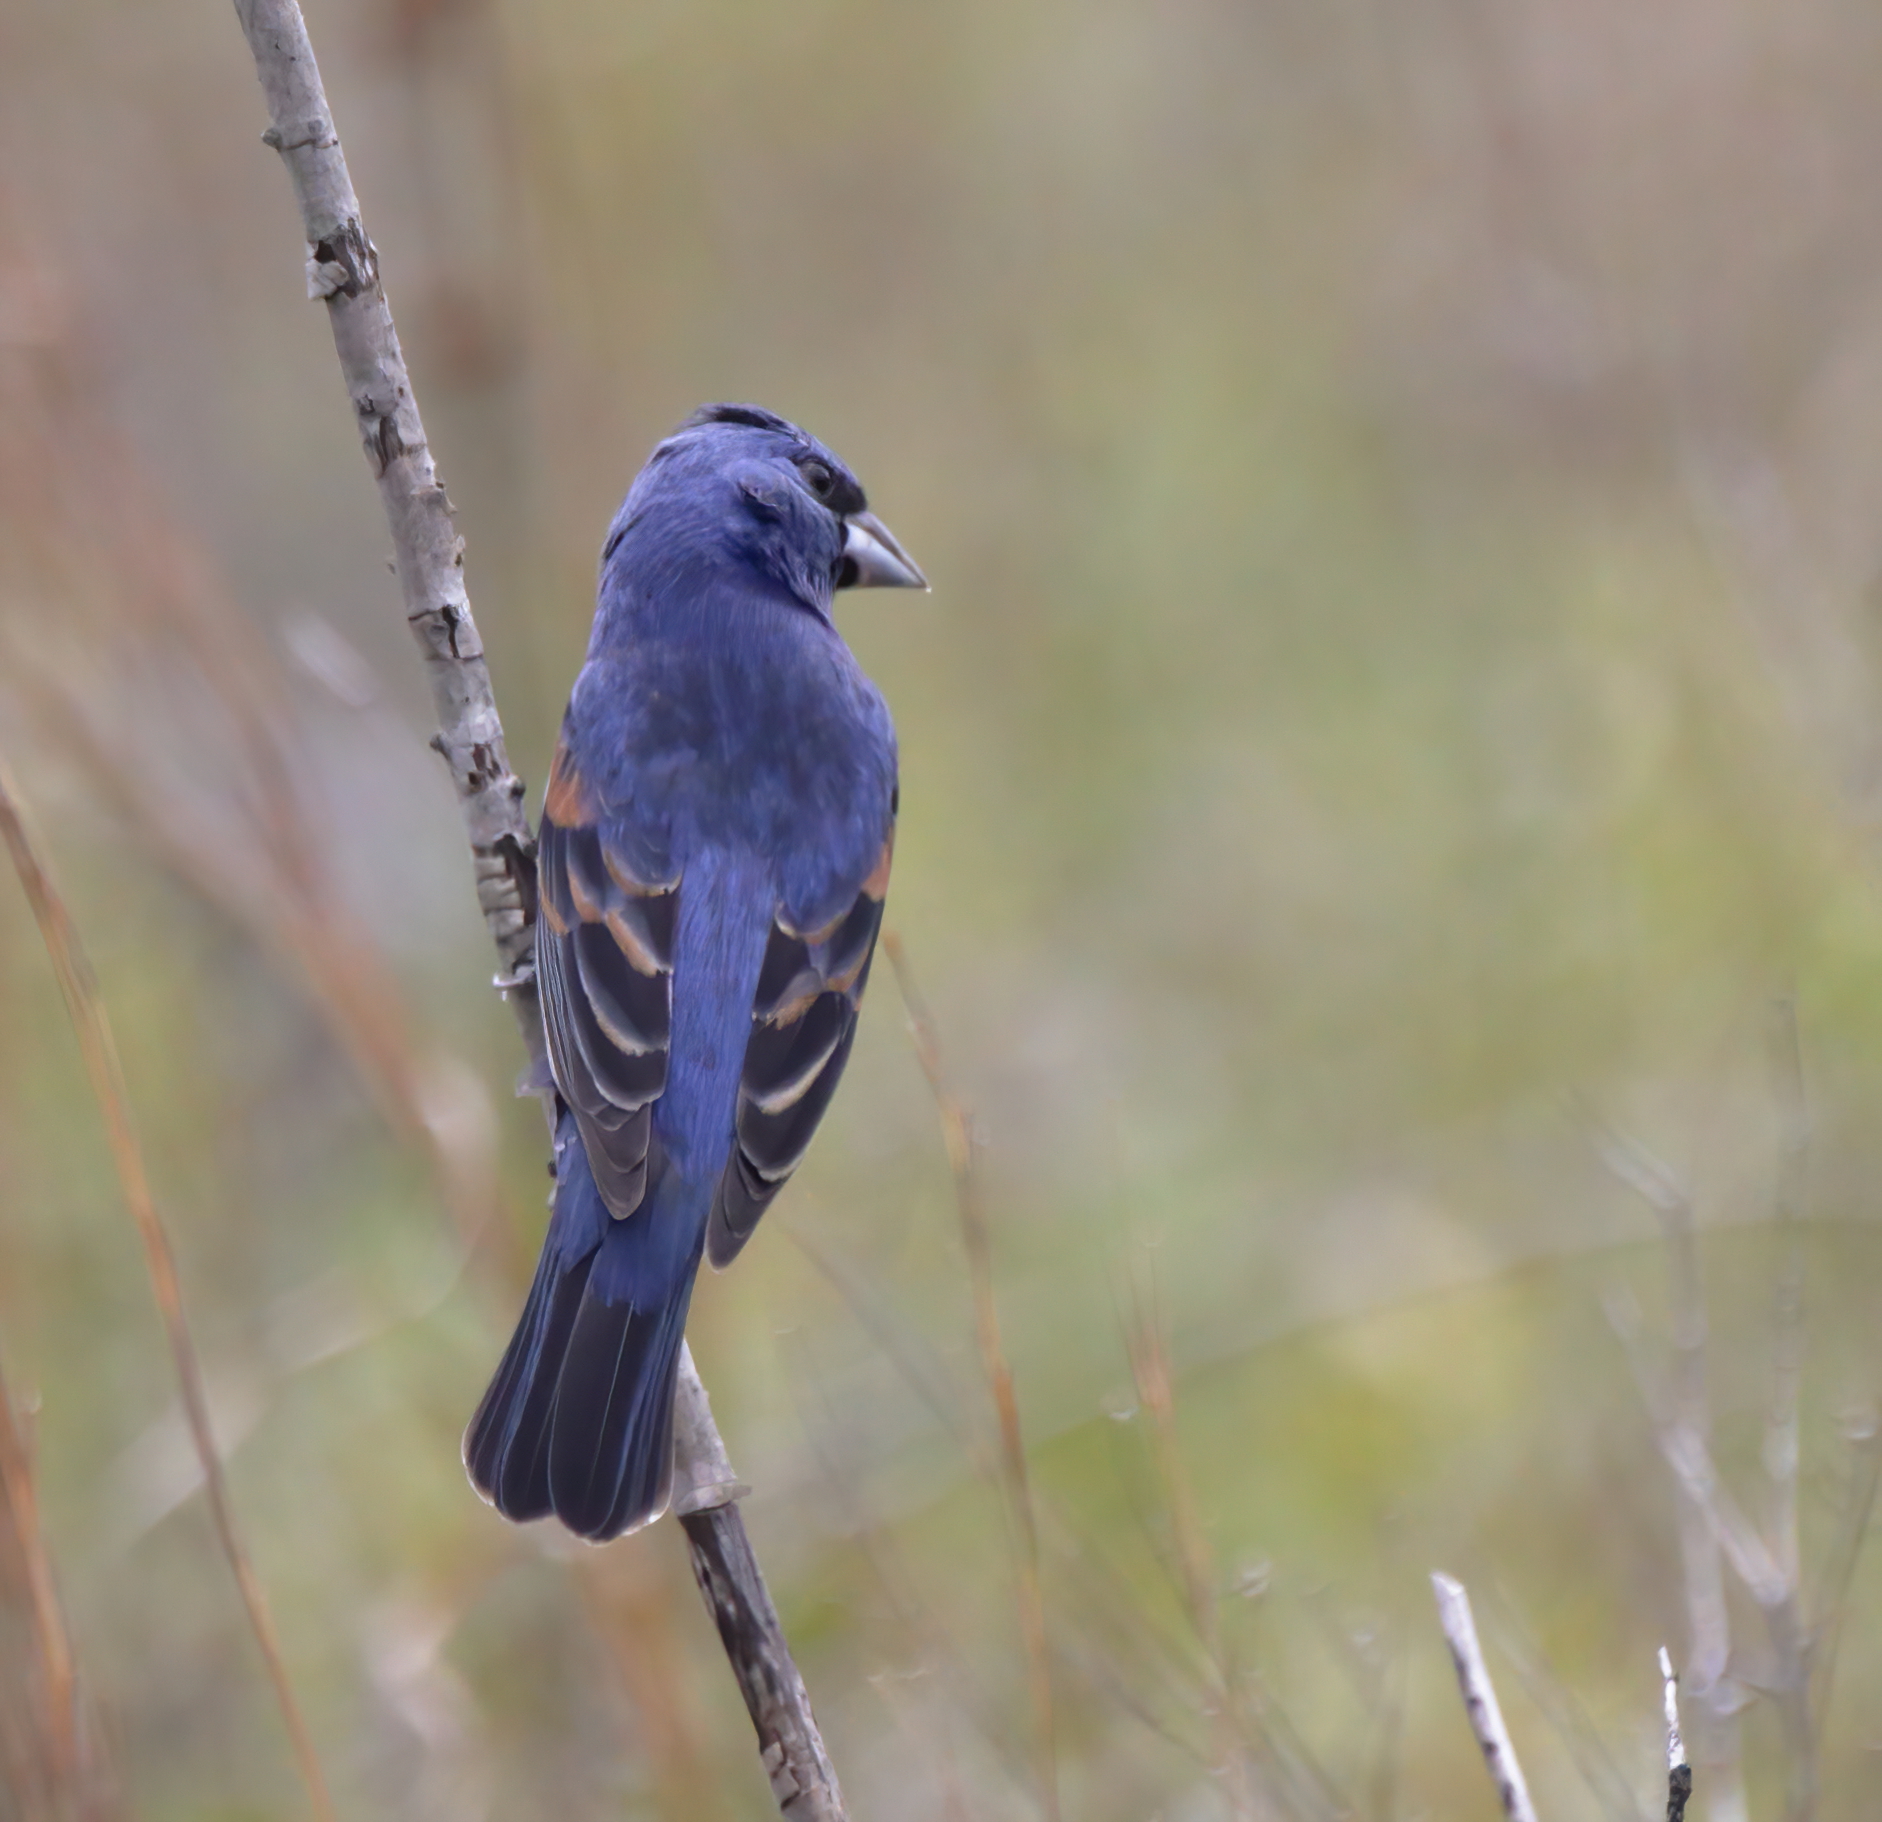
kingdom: Animalia
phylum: Chordata
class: Aves
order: Passeriformes
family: Cardinalidae
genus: Passerina
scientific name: Passerina caerulea
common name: Blue grosbeak
